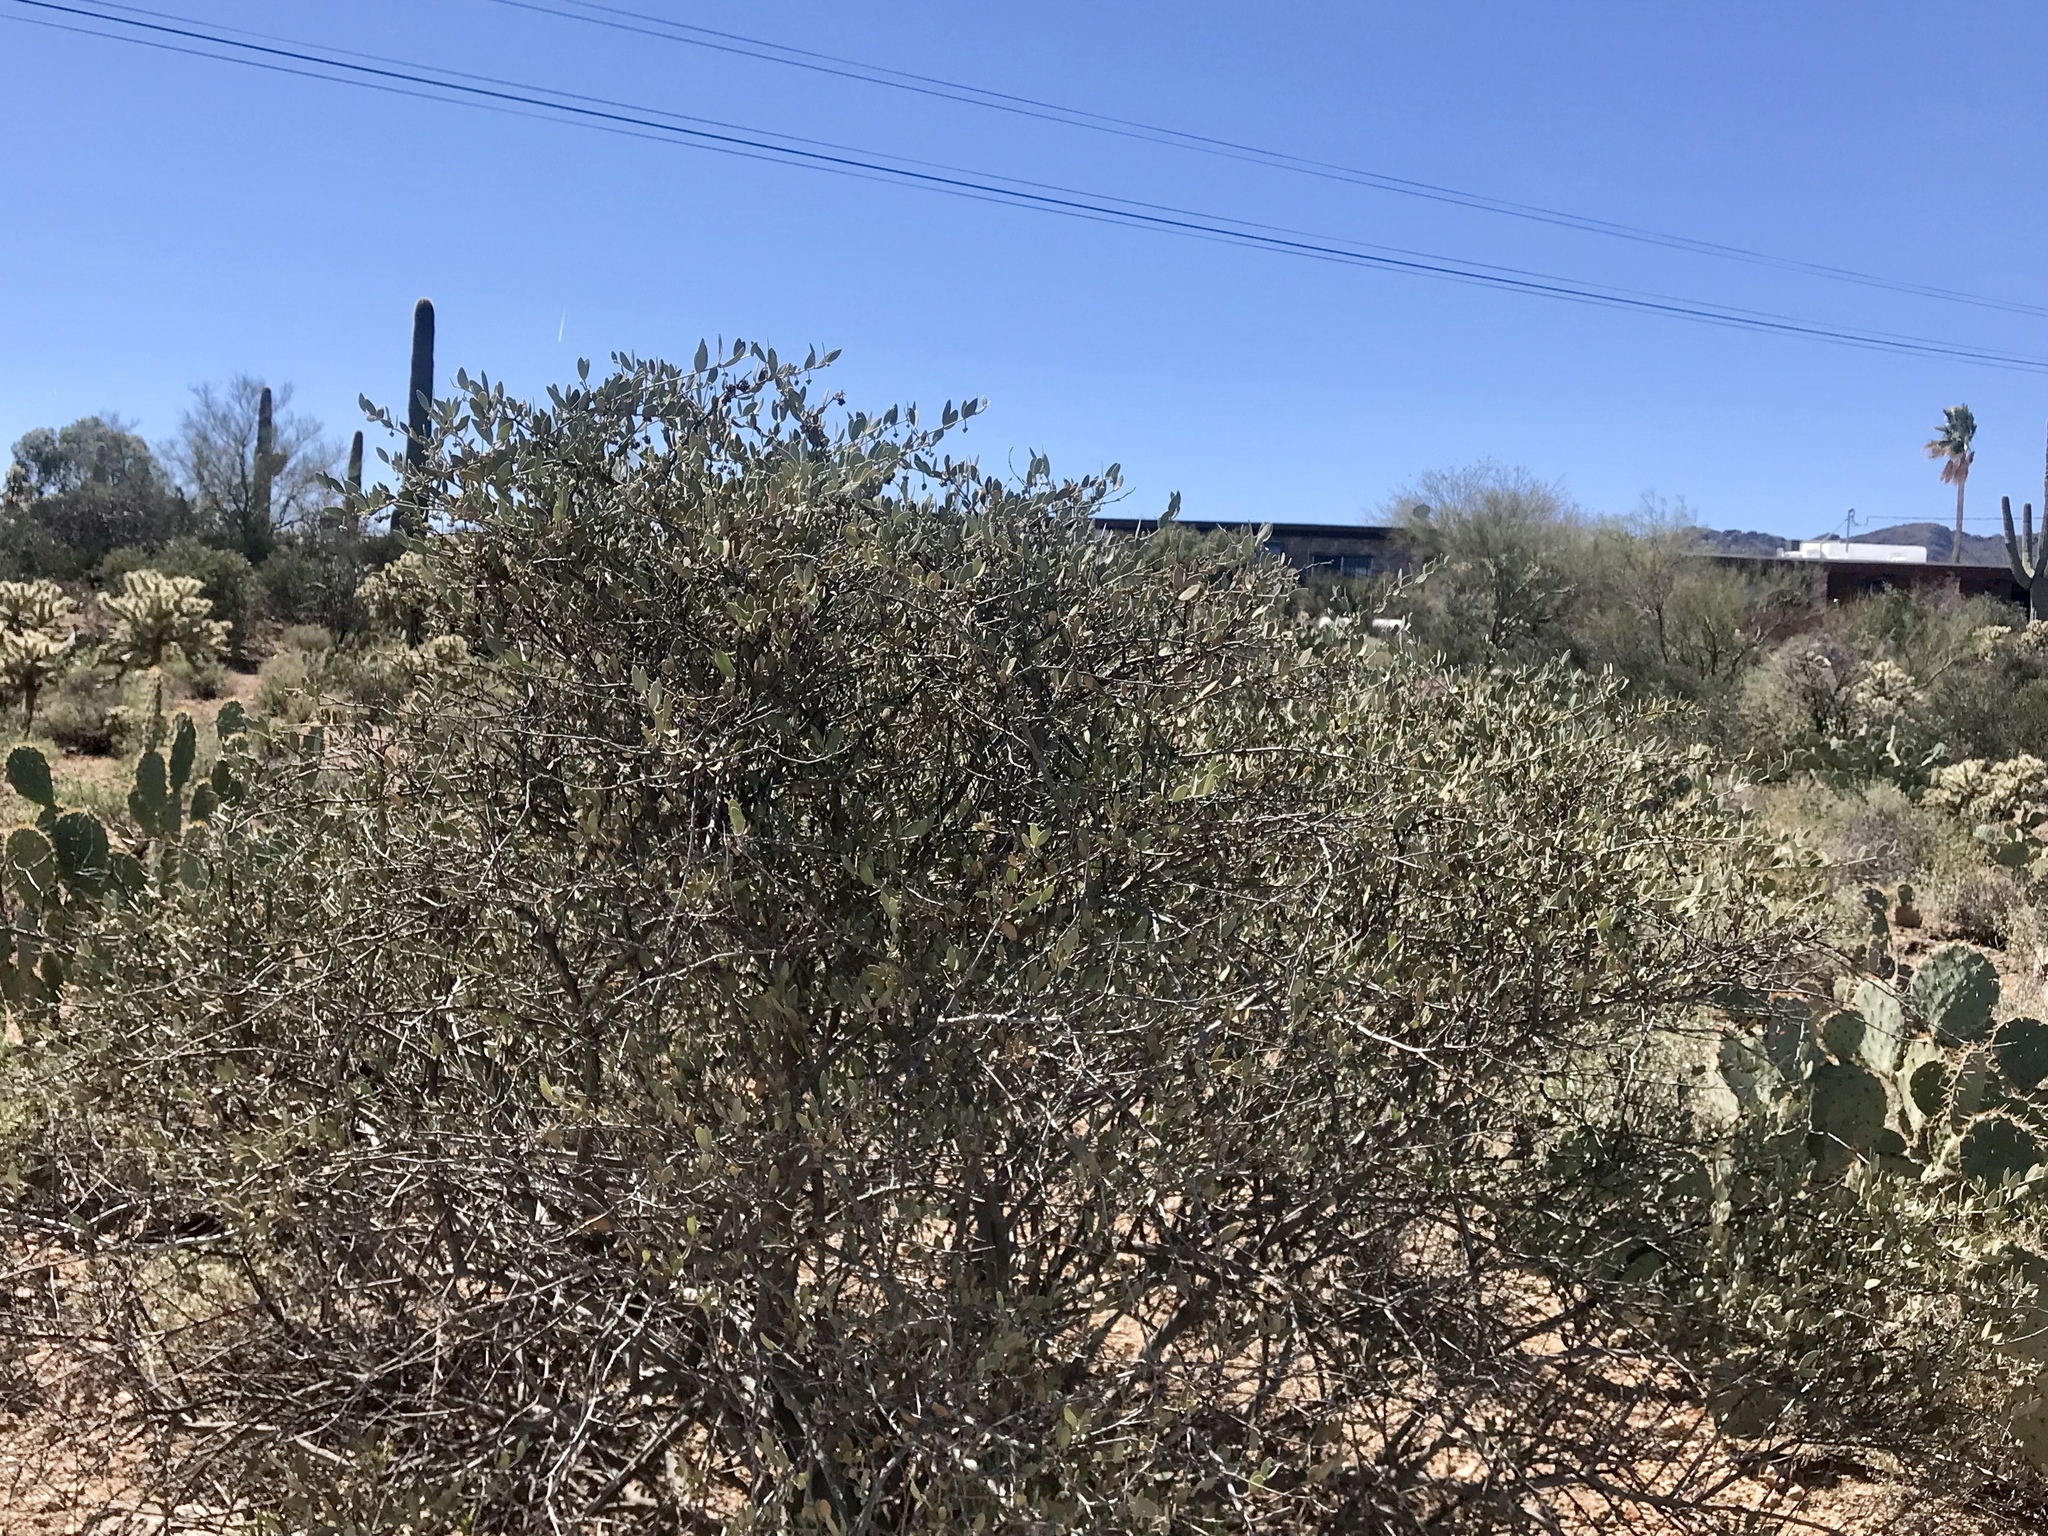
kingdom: Plantae
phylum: Tracheophyta
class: Magnoliopsida
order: Caryophyllales
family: Simmondsiaceae
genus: Simmondsia
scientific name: Simmondsia chinensis
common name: Jojoba
